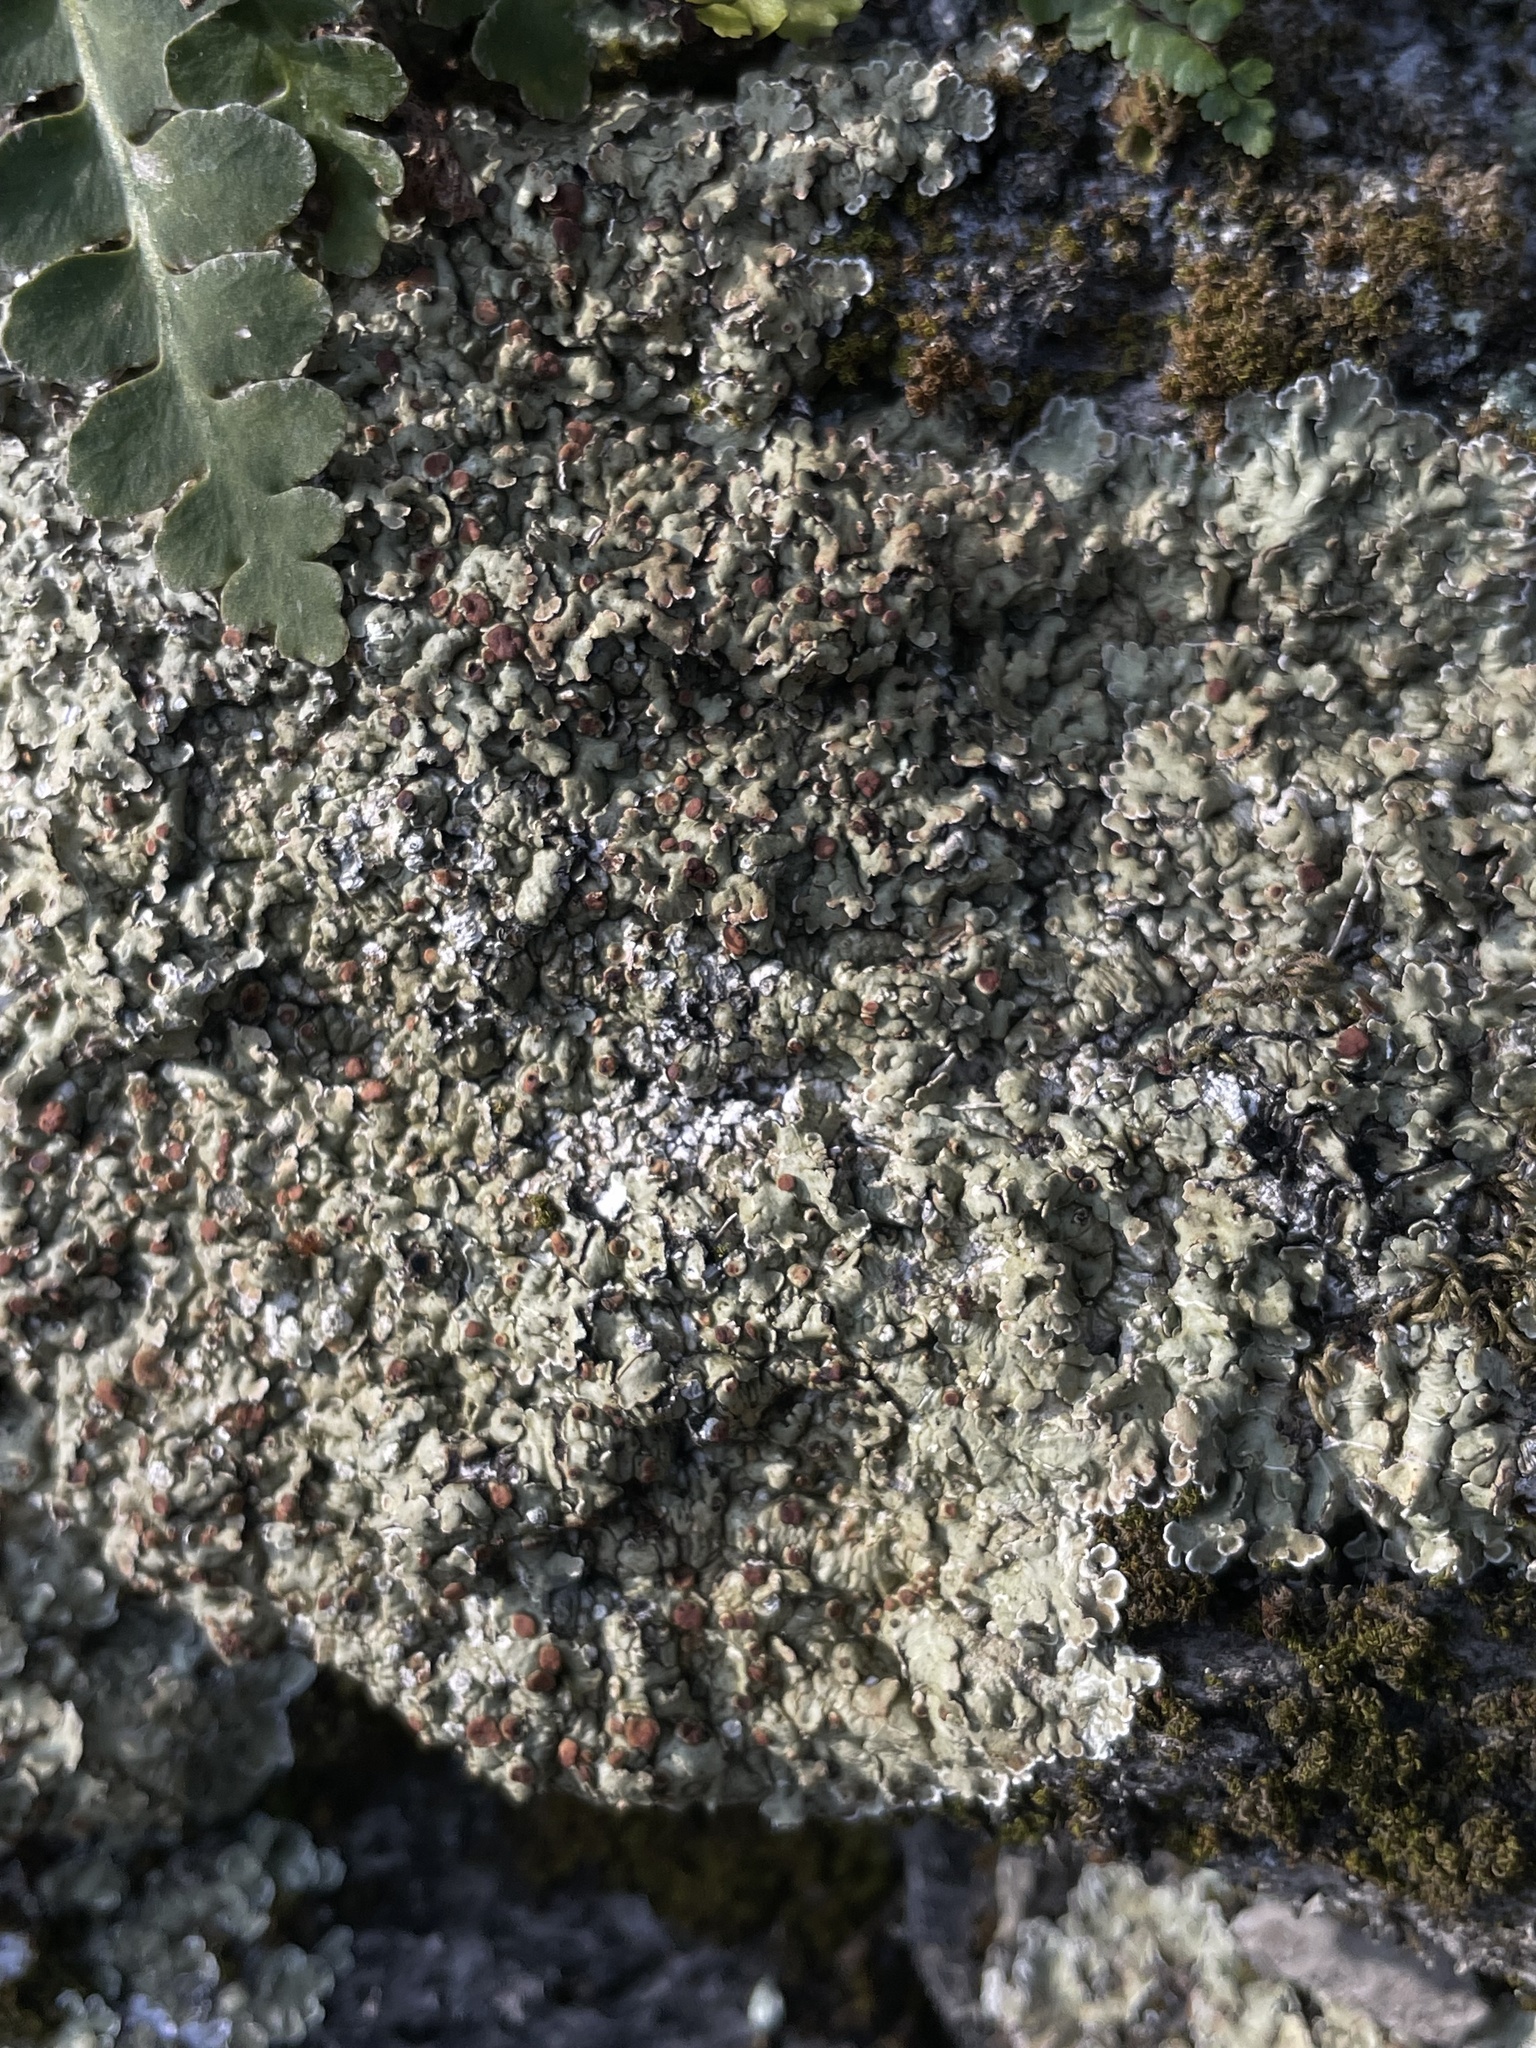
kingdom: Fungi
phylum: Ascomycota
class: Lecanoromycetes
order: Lecanorales
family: Stereocaulaceae
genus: Squamarina
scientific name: Squamarina cartilaginea
